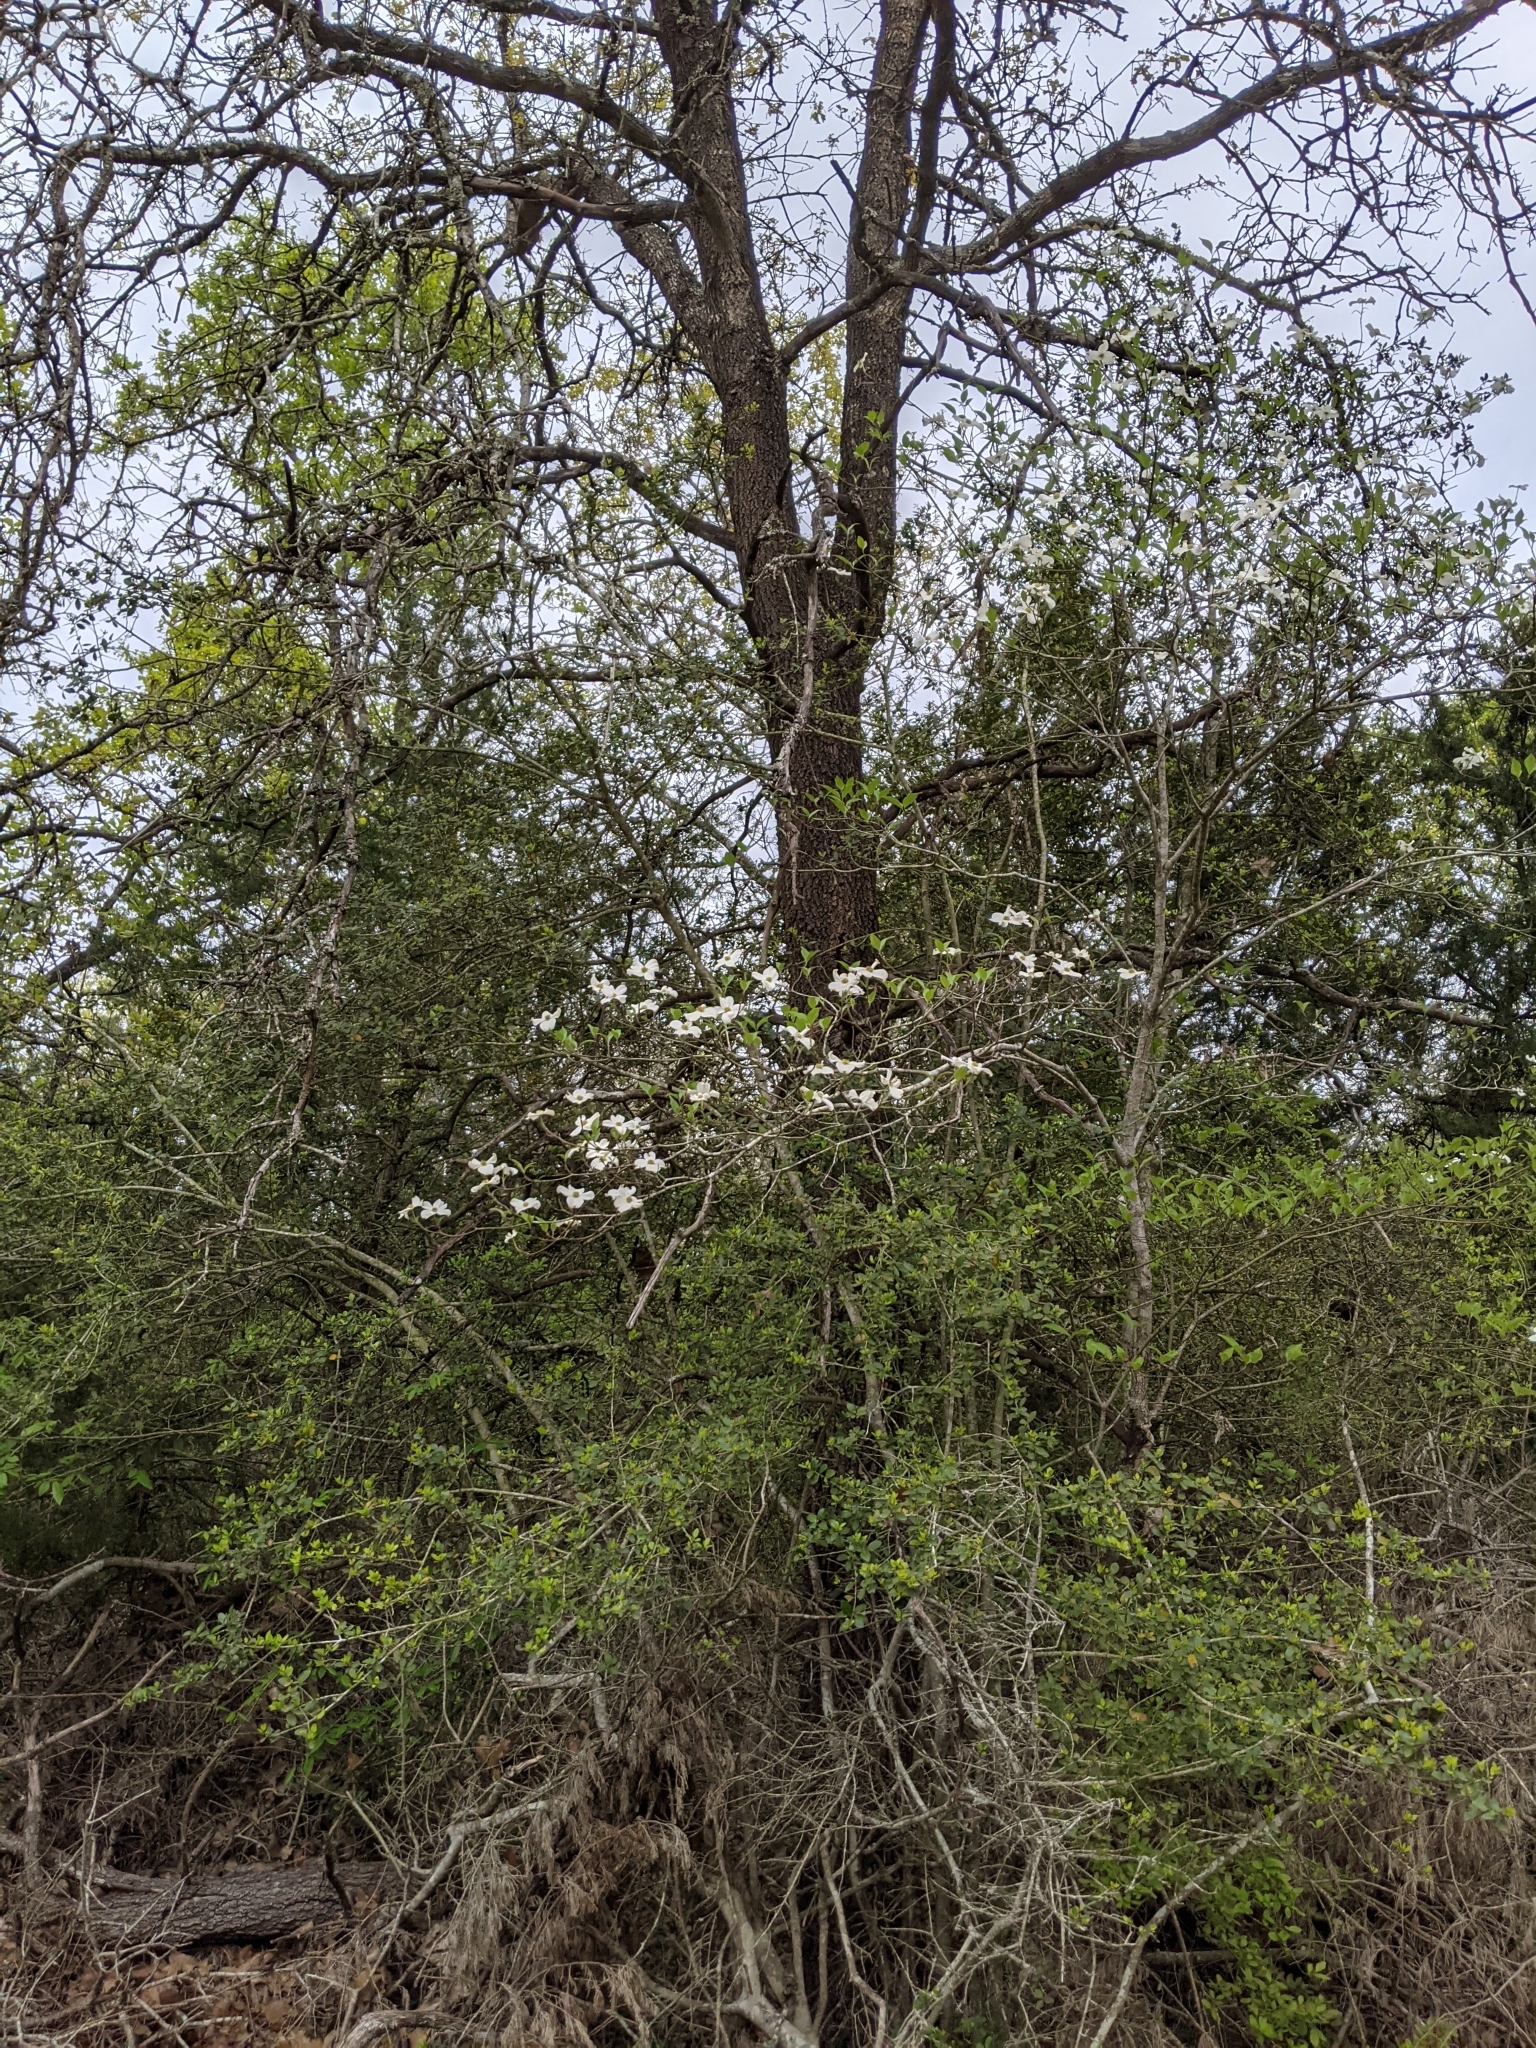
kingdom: Plantae
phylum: Tracheophyta
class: Magnoliopsida
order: Cornales
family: Cornaceae
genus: Cornus
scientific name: Cornus florida
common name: Flowering dogwood
